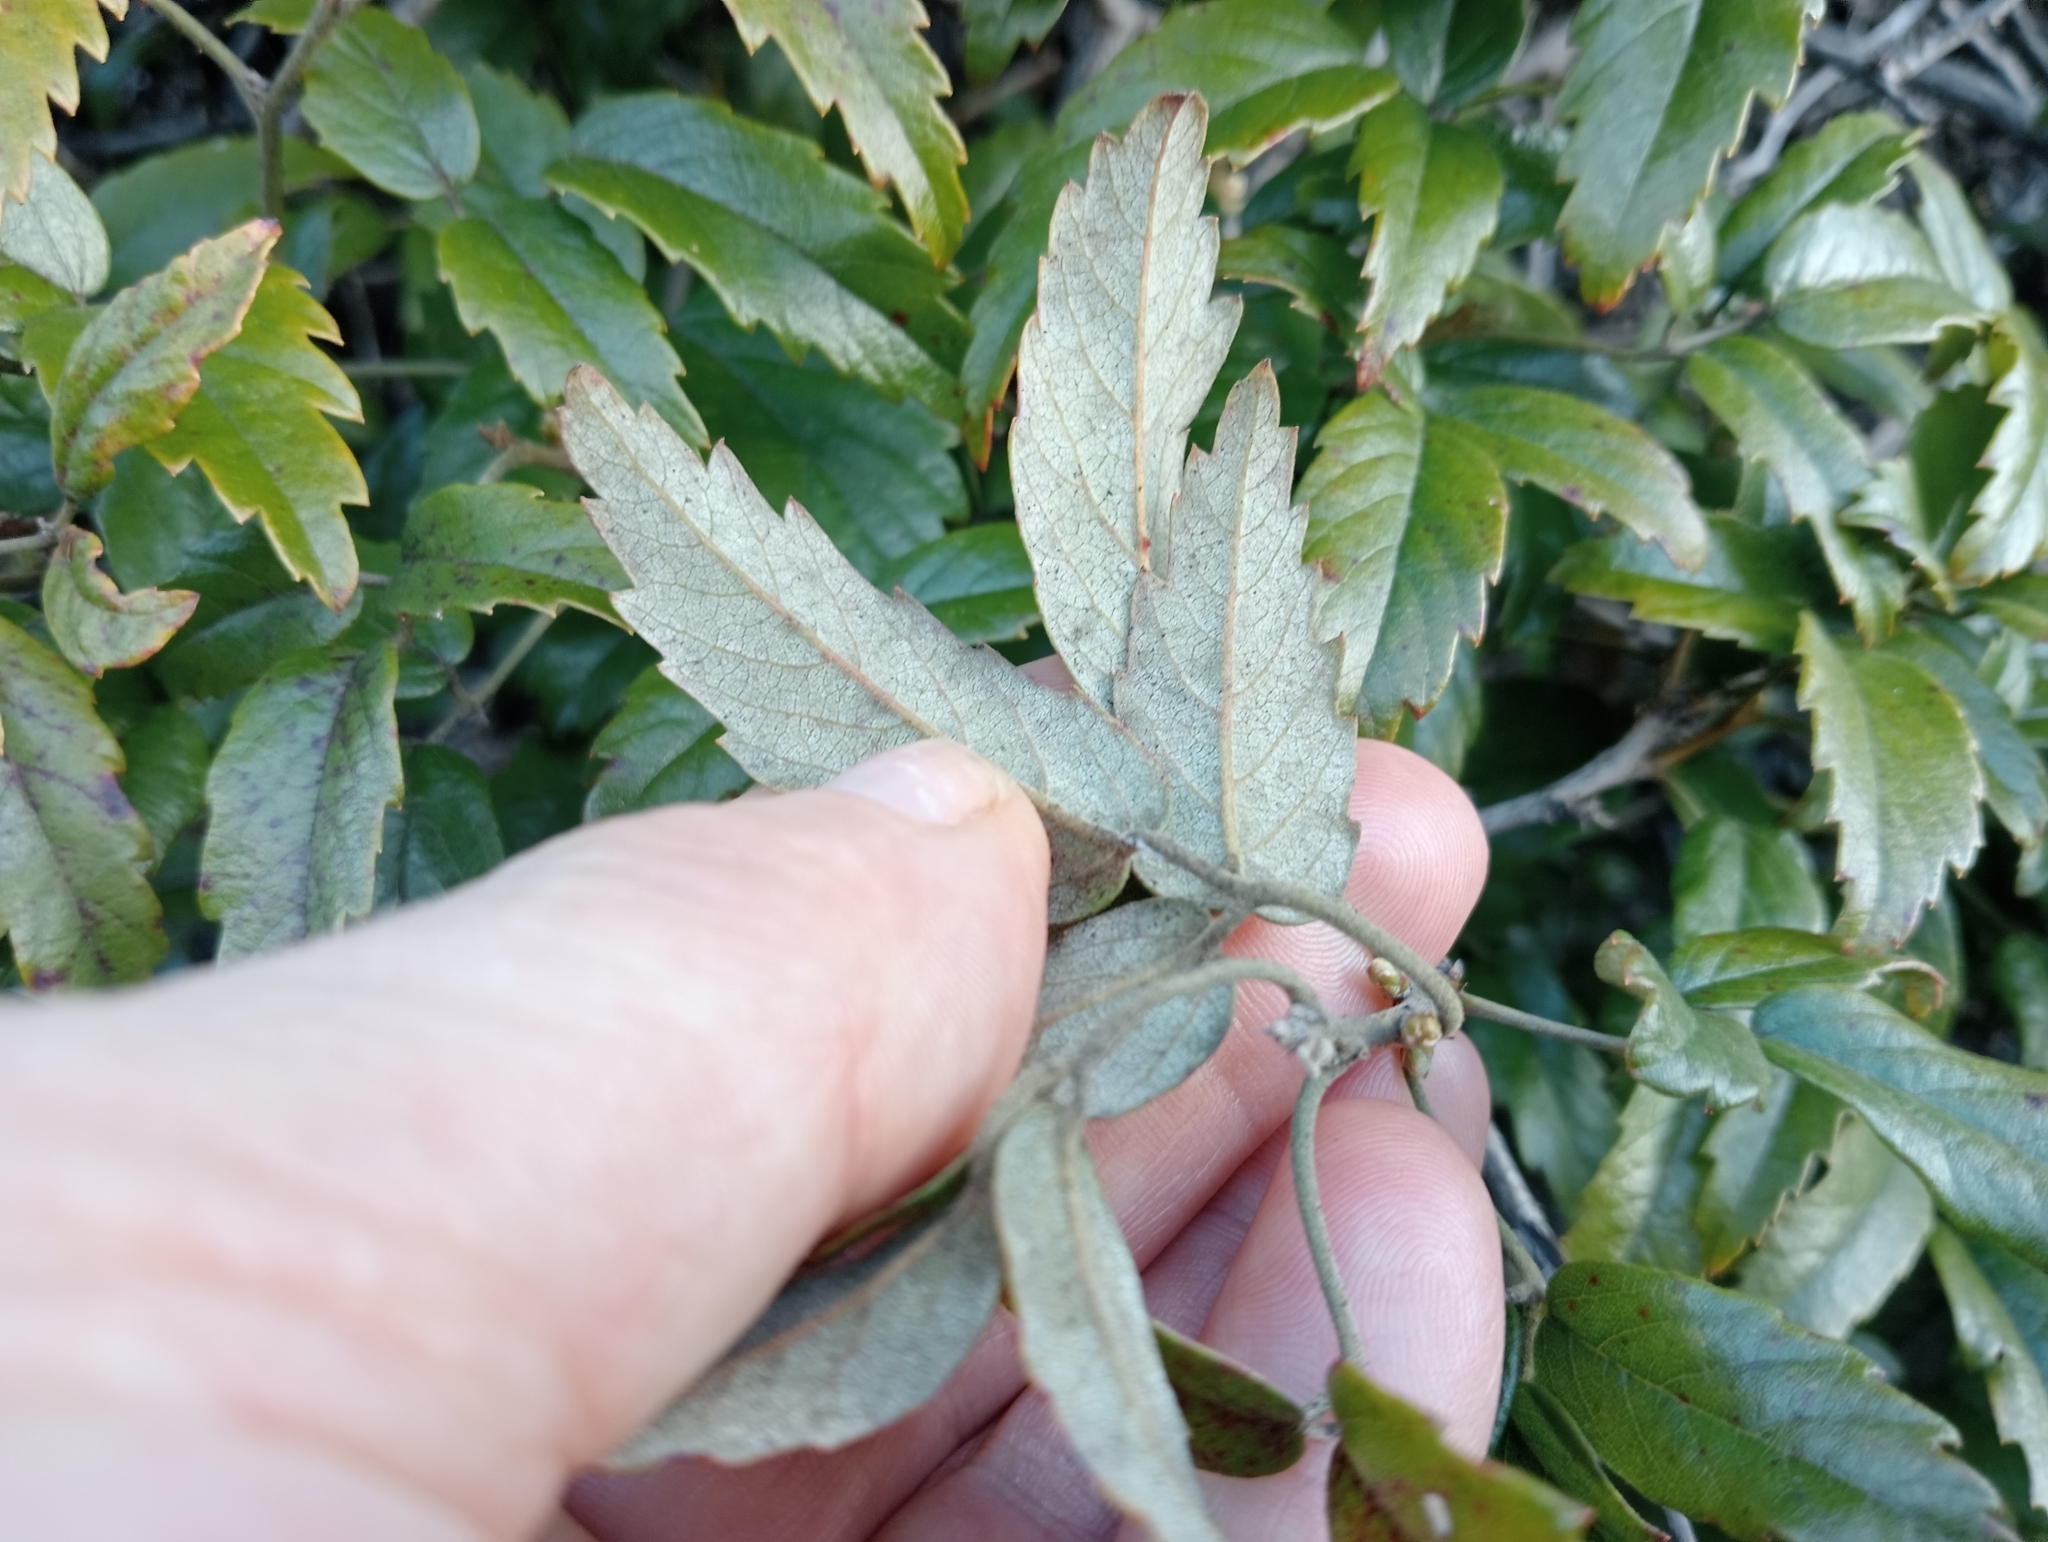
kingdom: Plantae
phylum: Tracheophyta
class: Magnoliopsida
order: Rosales
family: Rosaceae
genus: Rubus
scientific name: Rubus schmidelioides
